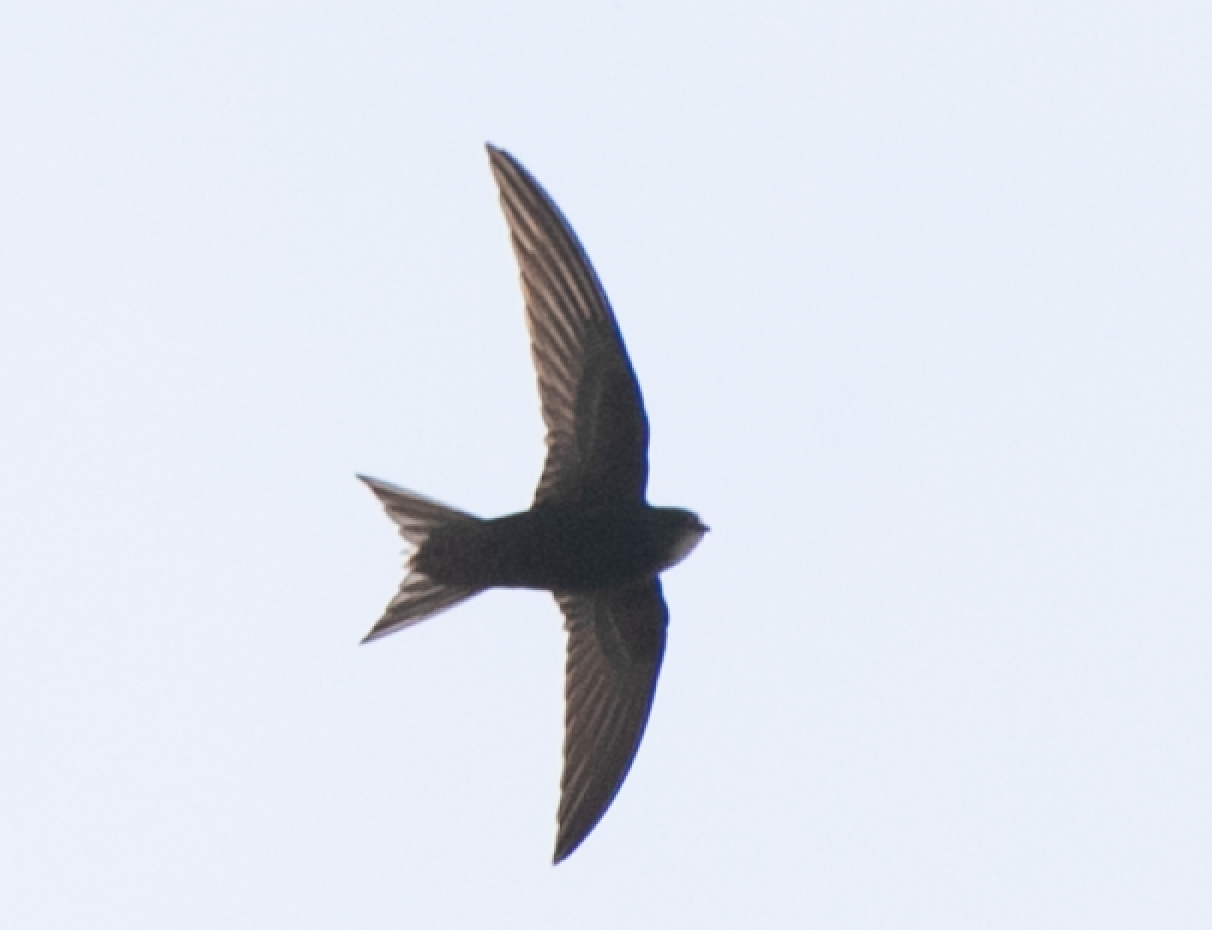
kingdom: Animalia
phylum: Chordata
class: Aves
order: Apodiformes
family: Apodidae
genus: Apus
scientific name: Apus apus
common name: Common swift
